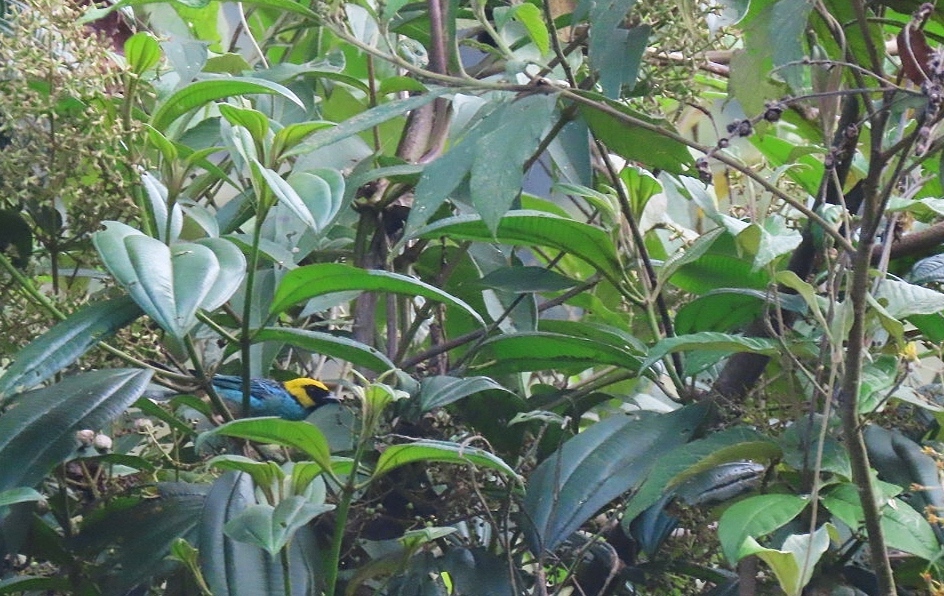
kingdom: Animalia
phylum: Chordata
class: Aves
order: Passeriformes
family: Thraupidae
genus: Tangara
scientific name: Tangara xanthocephala
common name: Saffron-crowned tanager
